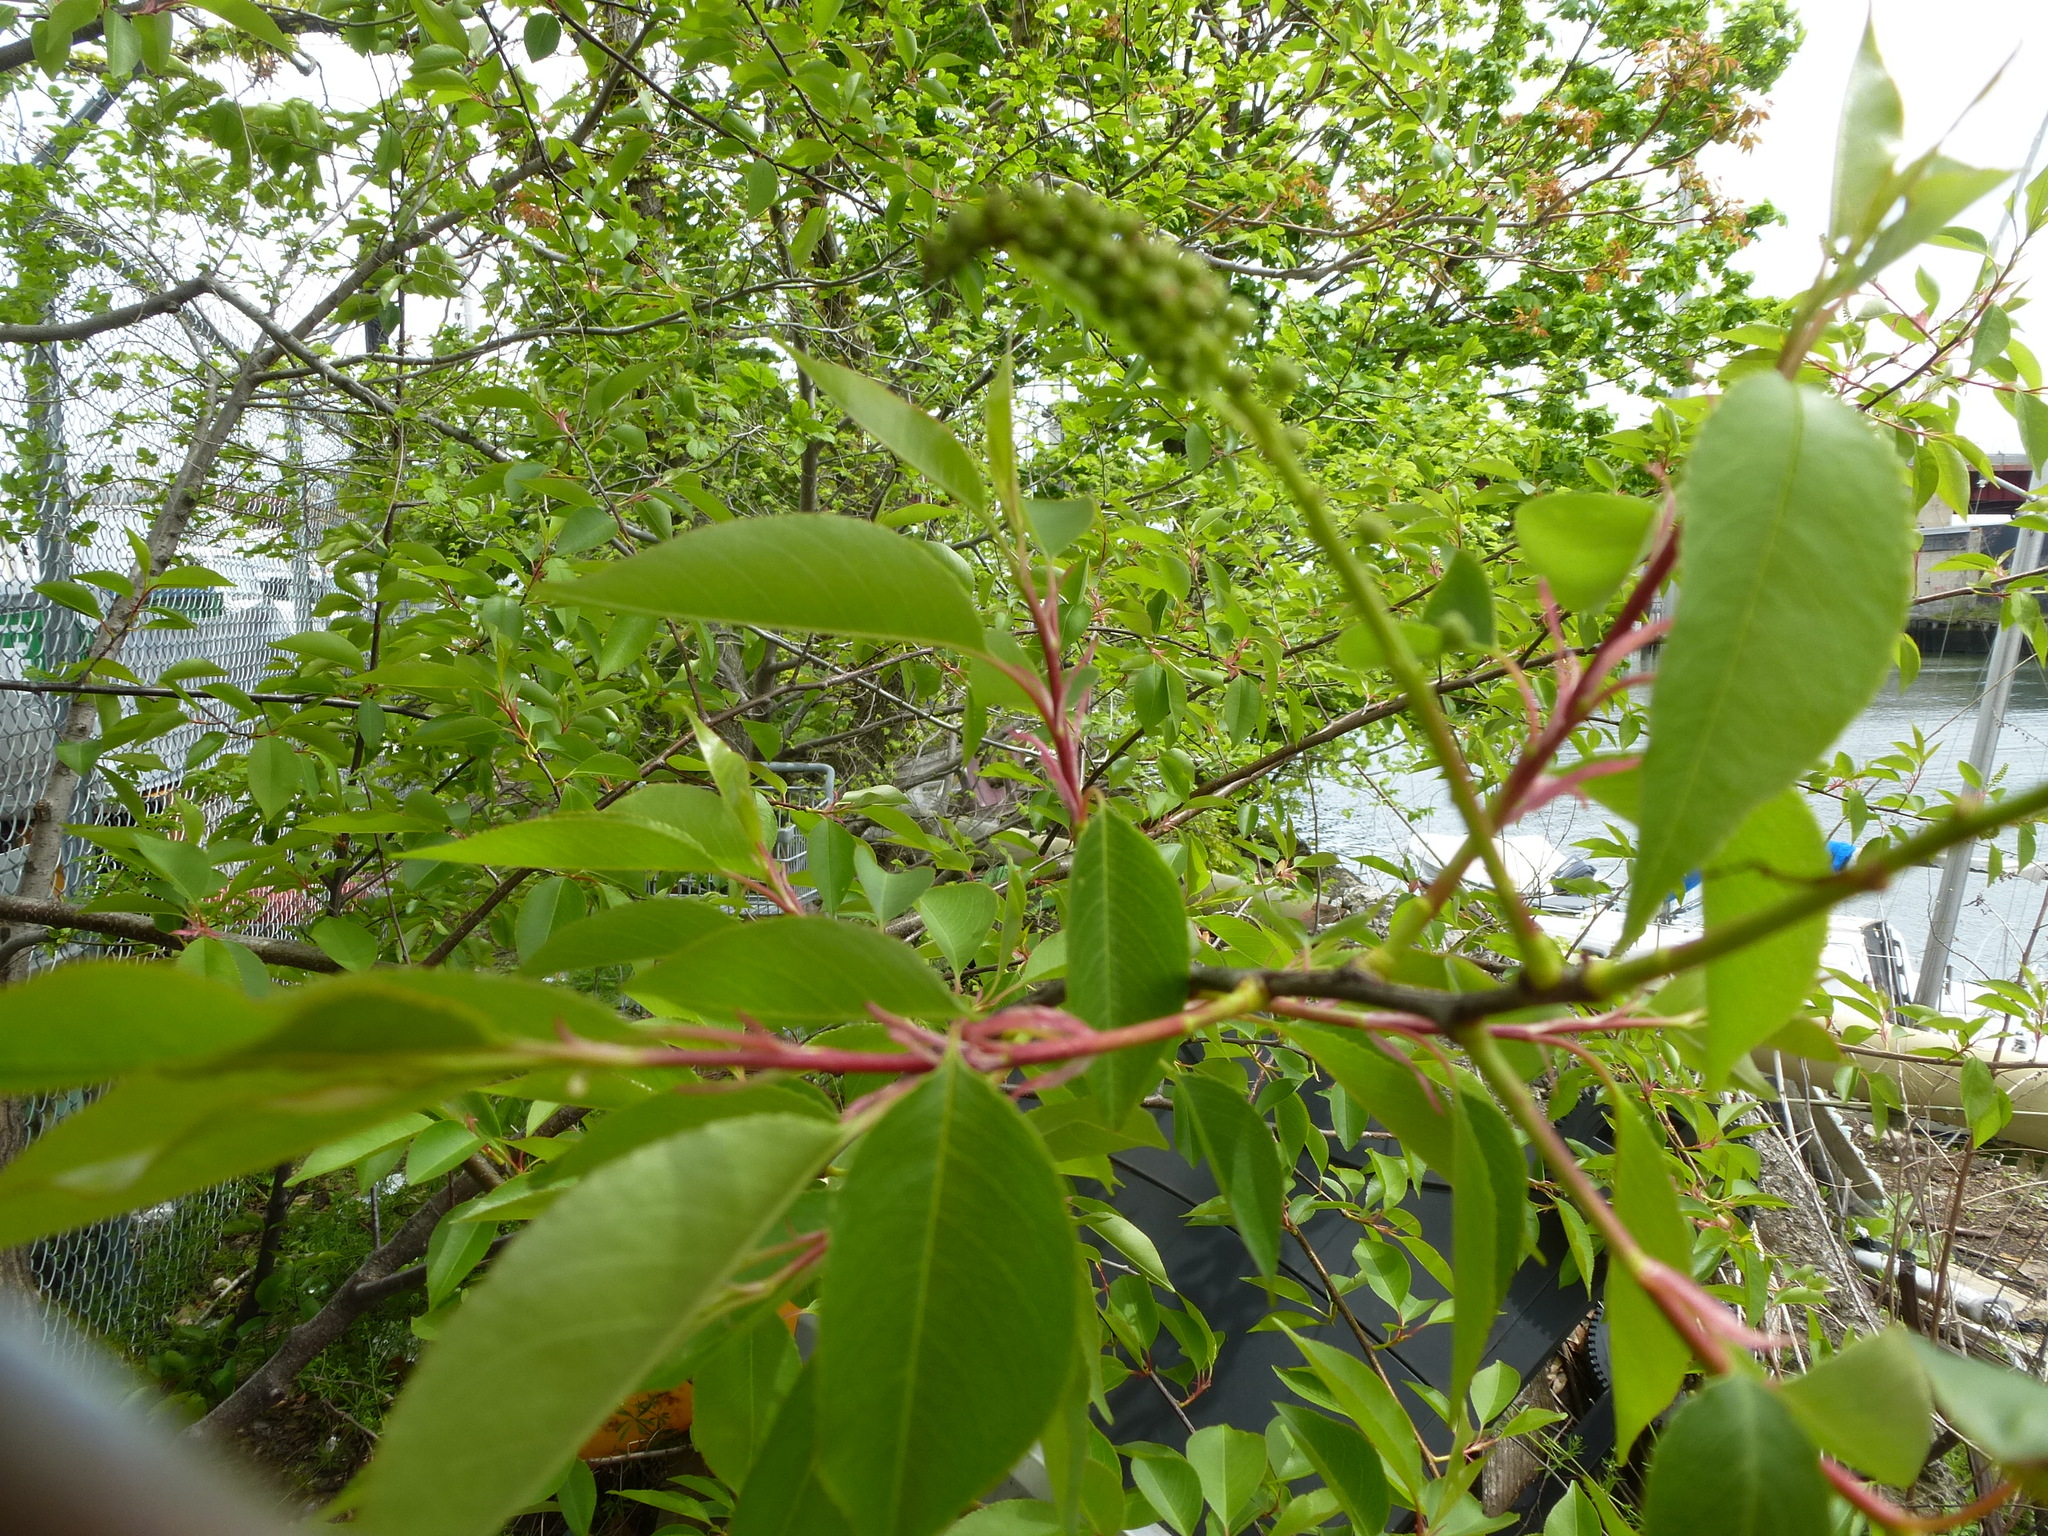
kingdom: Plantae
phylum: Tracheophyta
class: Magnoliopsida
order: Rosales
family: Rosaceae
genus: Prunus
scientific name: Prunus serotina
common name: Black cherry
